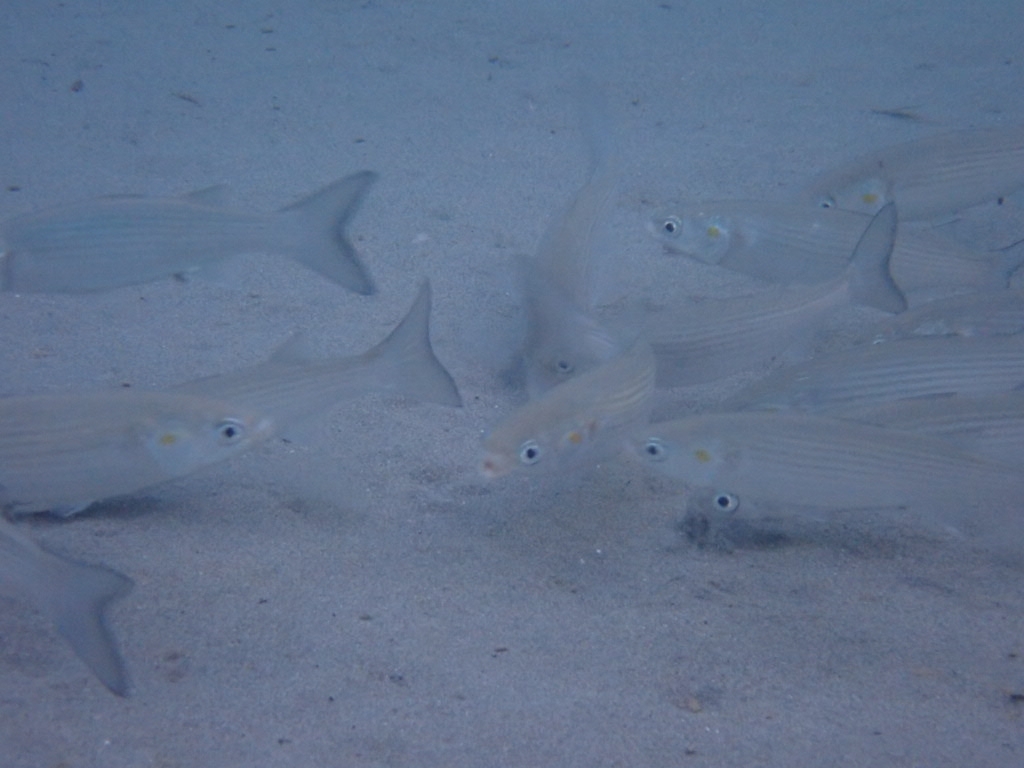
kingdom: Animalia
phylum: Chordata
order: Mugiliformes
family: Mugilidae
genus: Chelon
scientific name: Chelon
